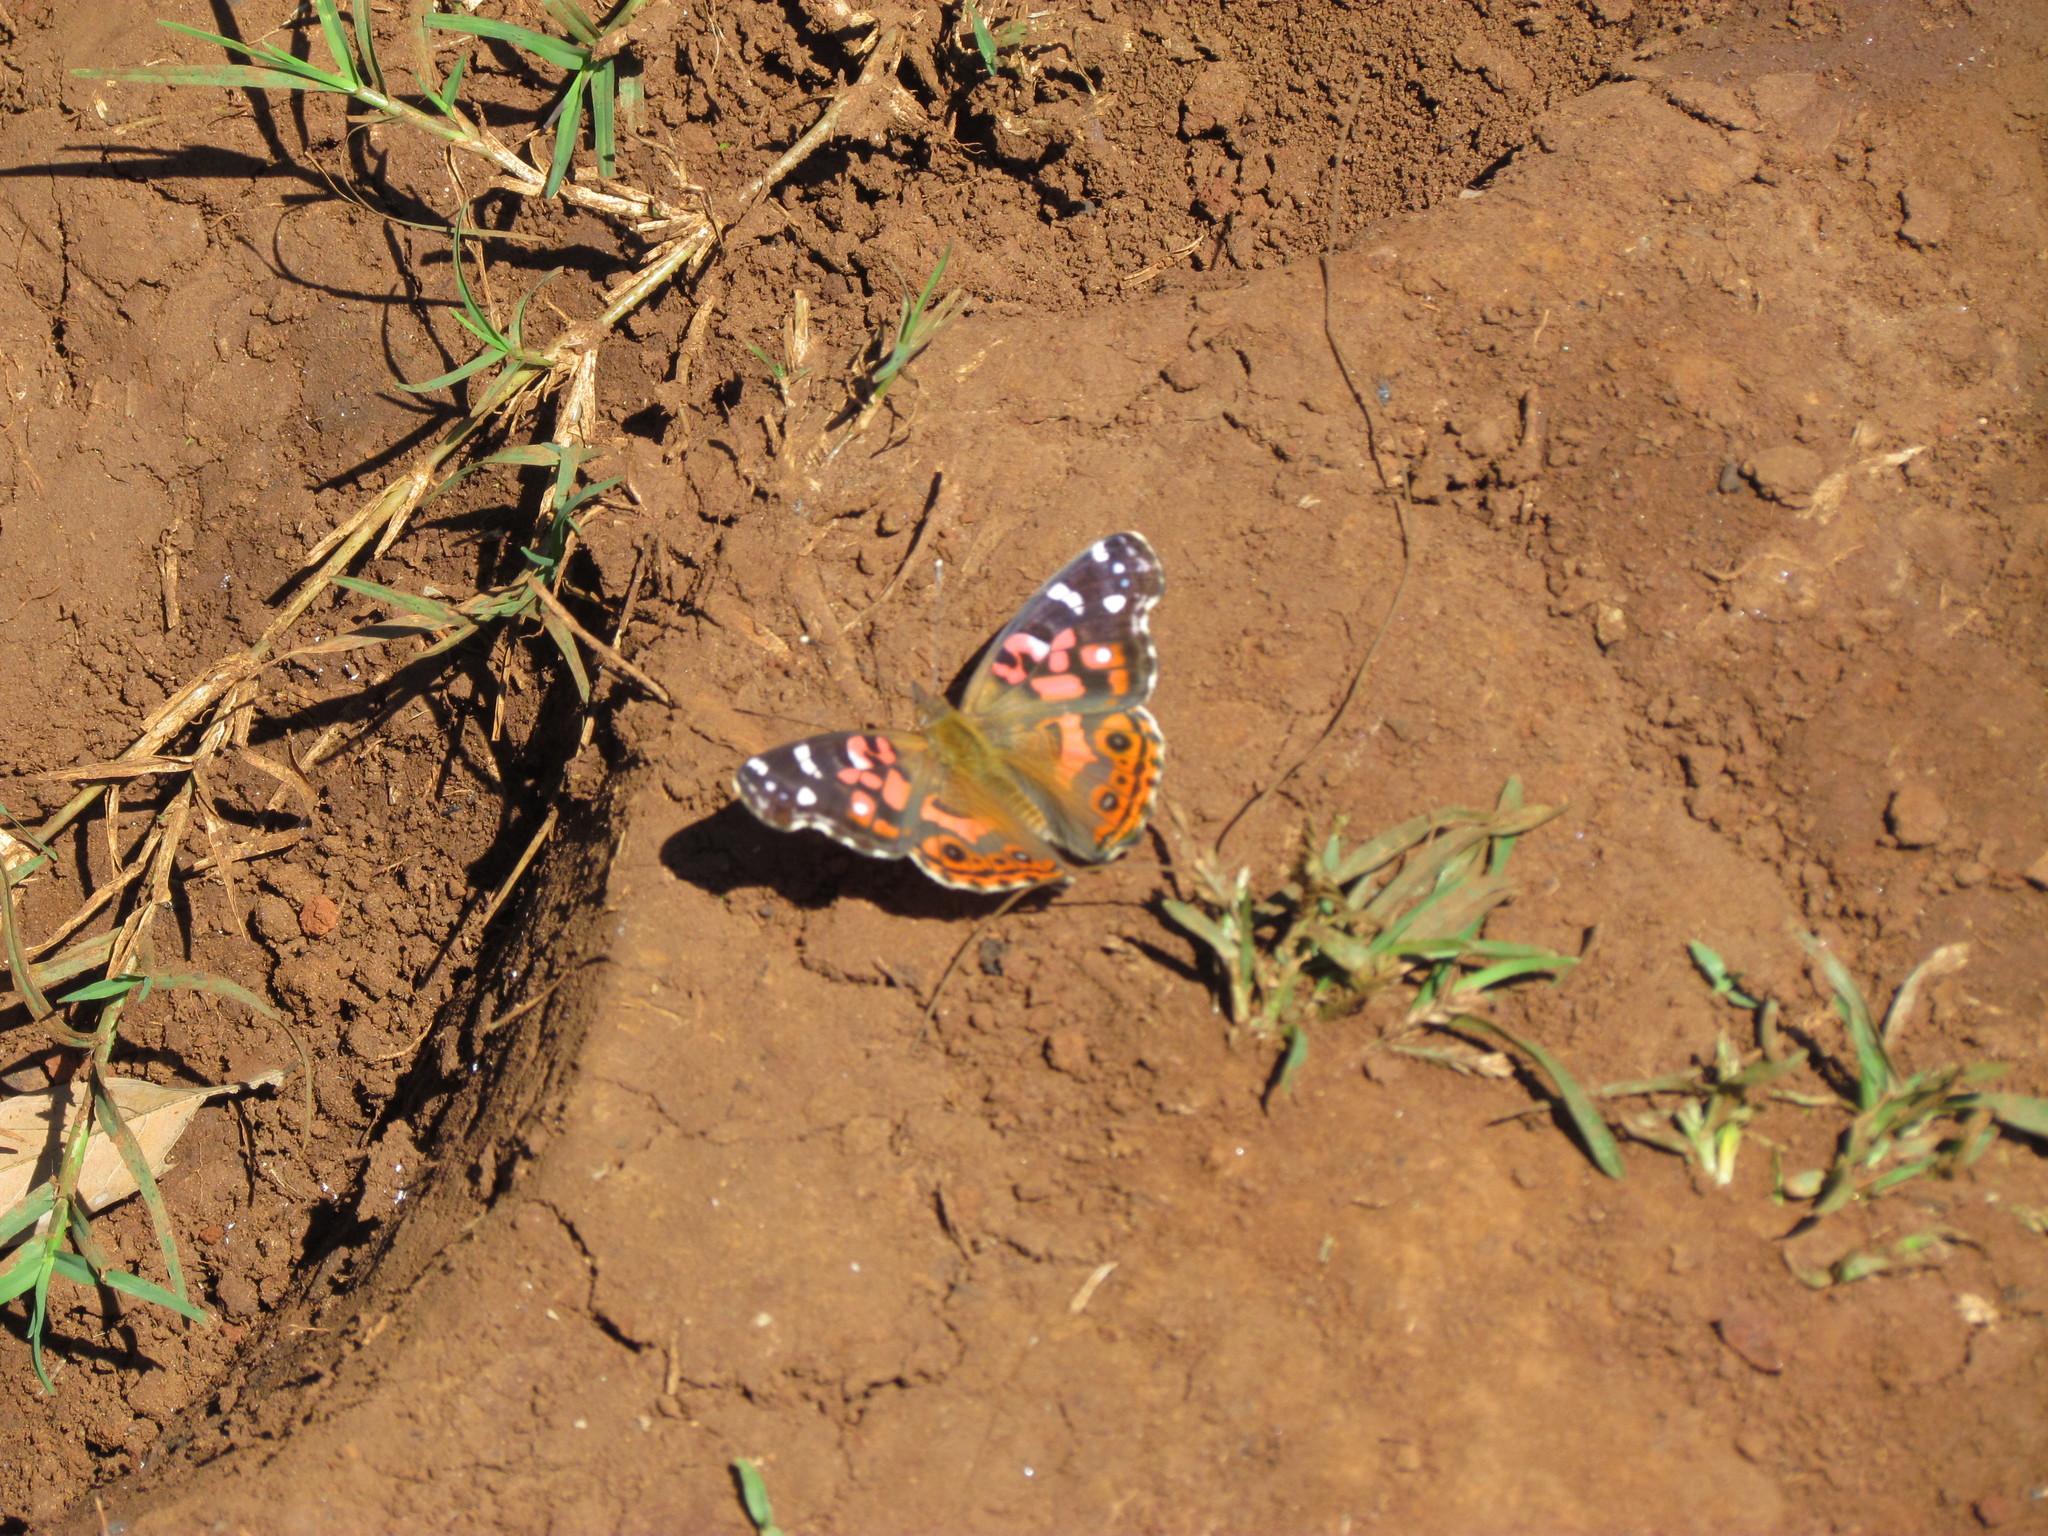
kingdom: Animalia
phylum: Arthropoda
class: Insecta
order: Lepidoptera
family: Nymphalidae
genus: Vanessa
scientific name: Vanessa braziliensis
